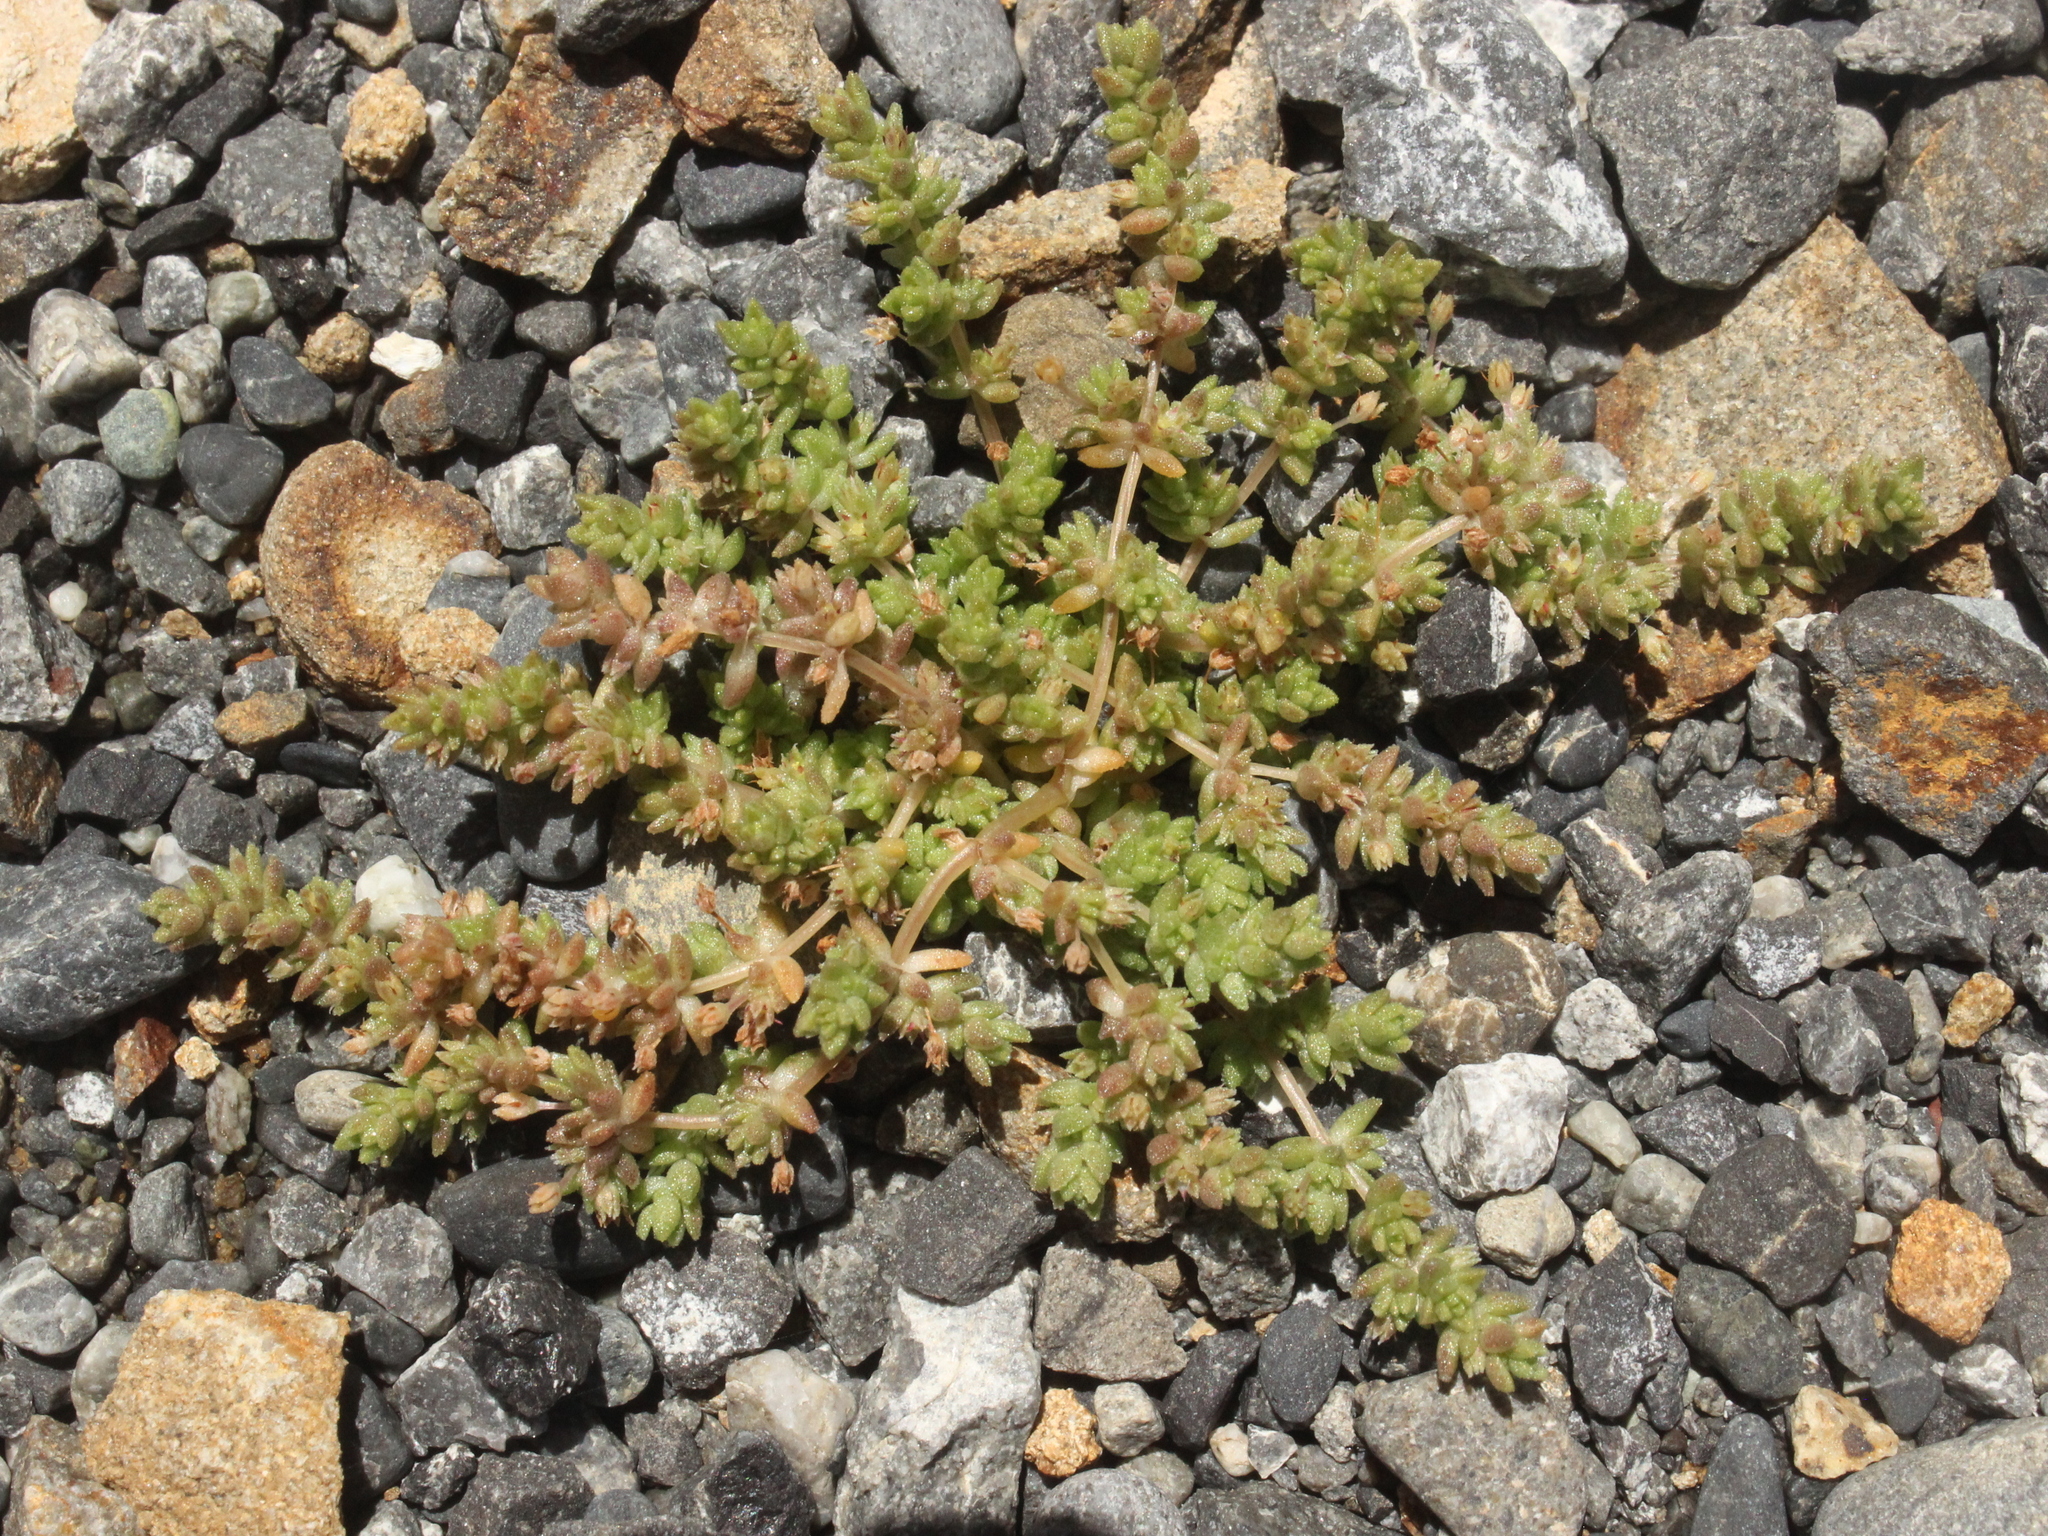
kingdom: Plantae
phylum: Tracheophyta
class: Magnoliopsida
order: Saxifragales
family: Crassulaceae
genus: Crassula
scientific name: Crassula mataikona
